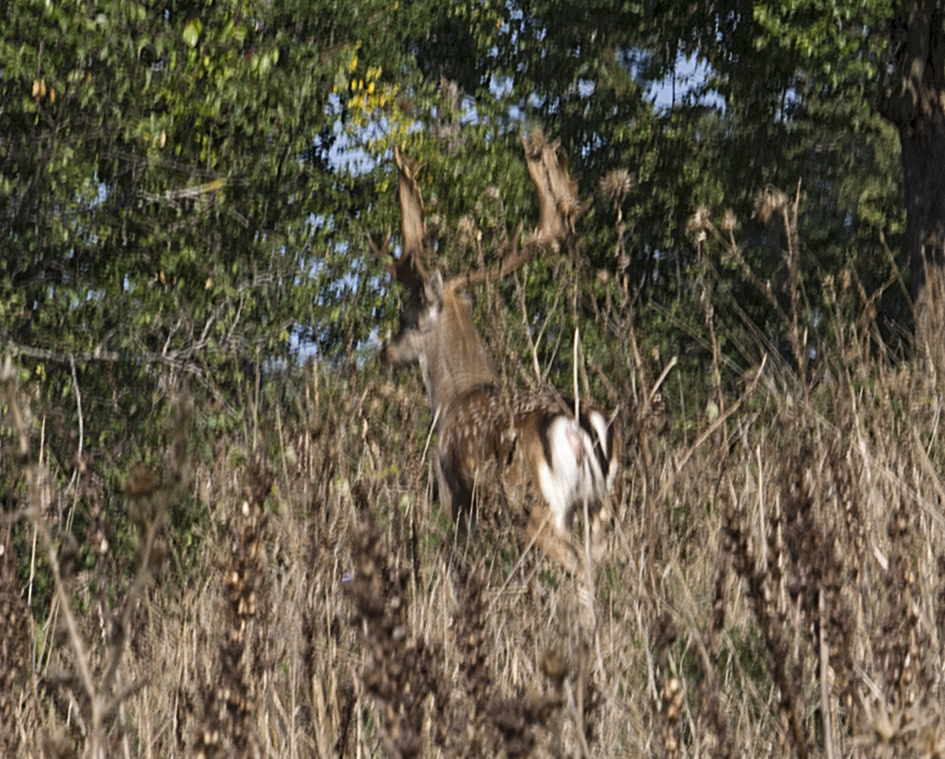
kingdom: Animalia
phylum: Chordata
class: Mammalia
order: Artiodactyla
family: Cervidae
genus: Dama
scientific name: Dama dama
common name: Fallow deer
